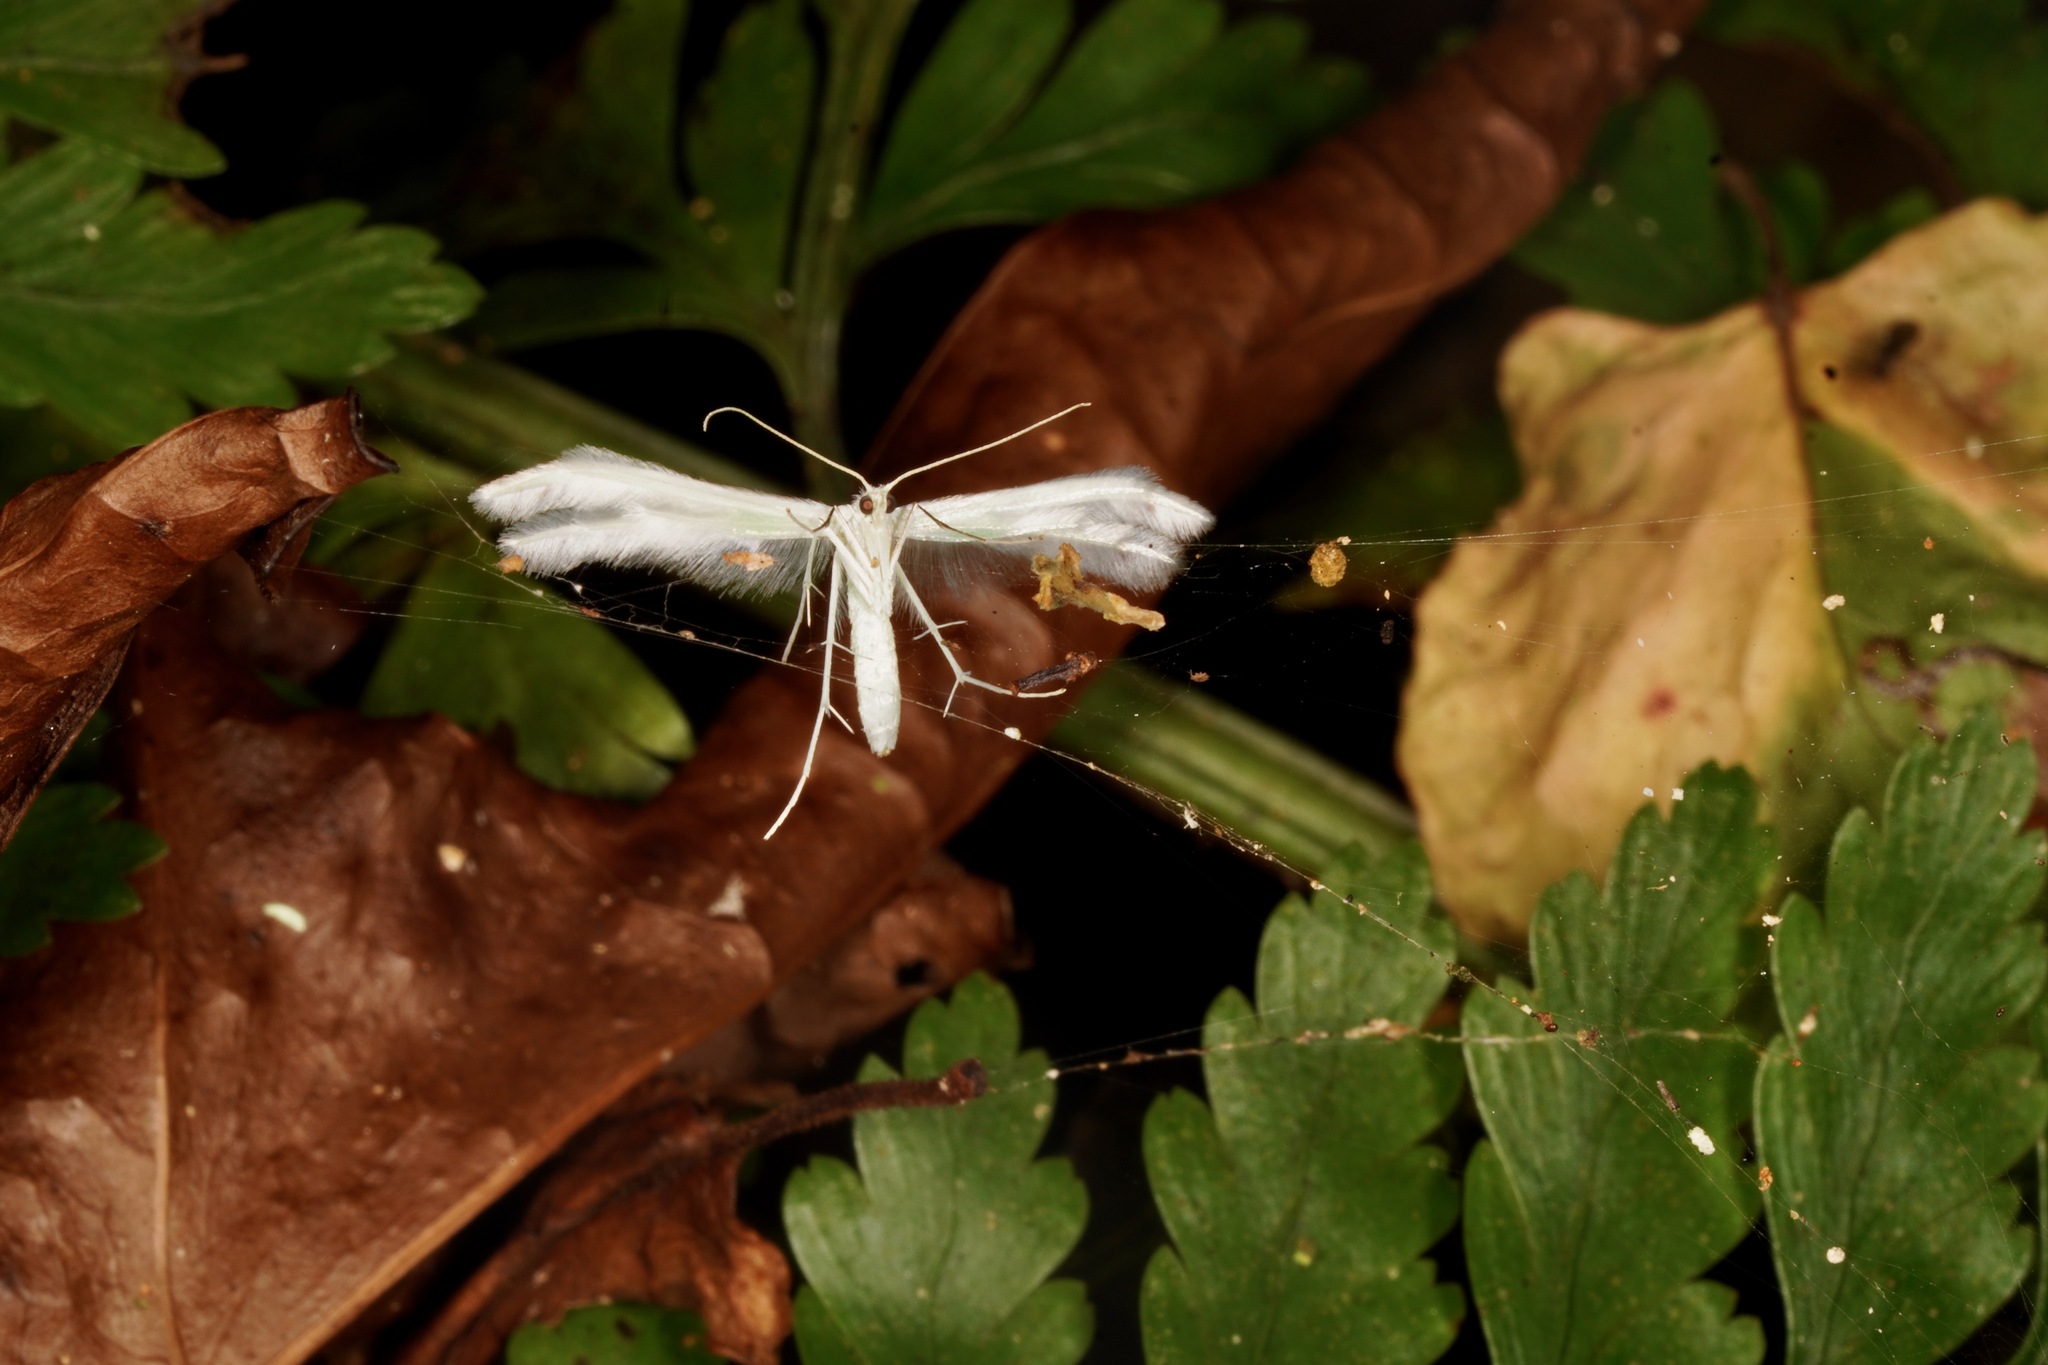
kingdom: Animalia
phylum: Arthropoda
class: Insecta
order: Lepidoptera
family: Pterophoridae
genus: Pterophorus
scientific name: Pterophorus monospilalis
